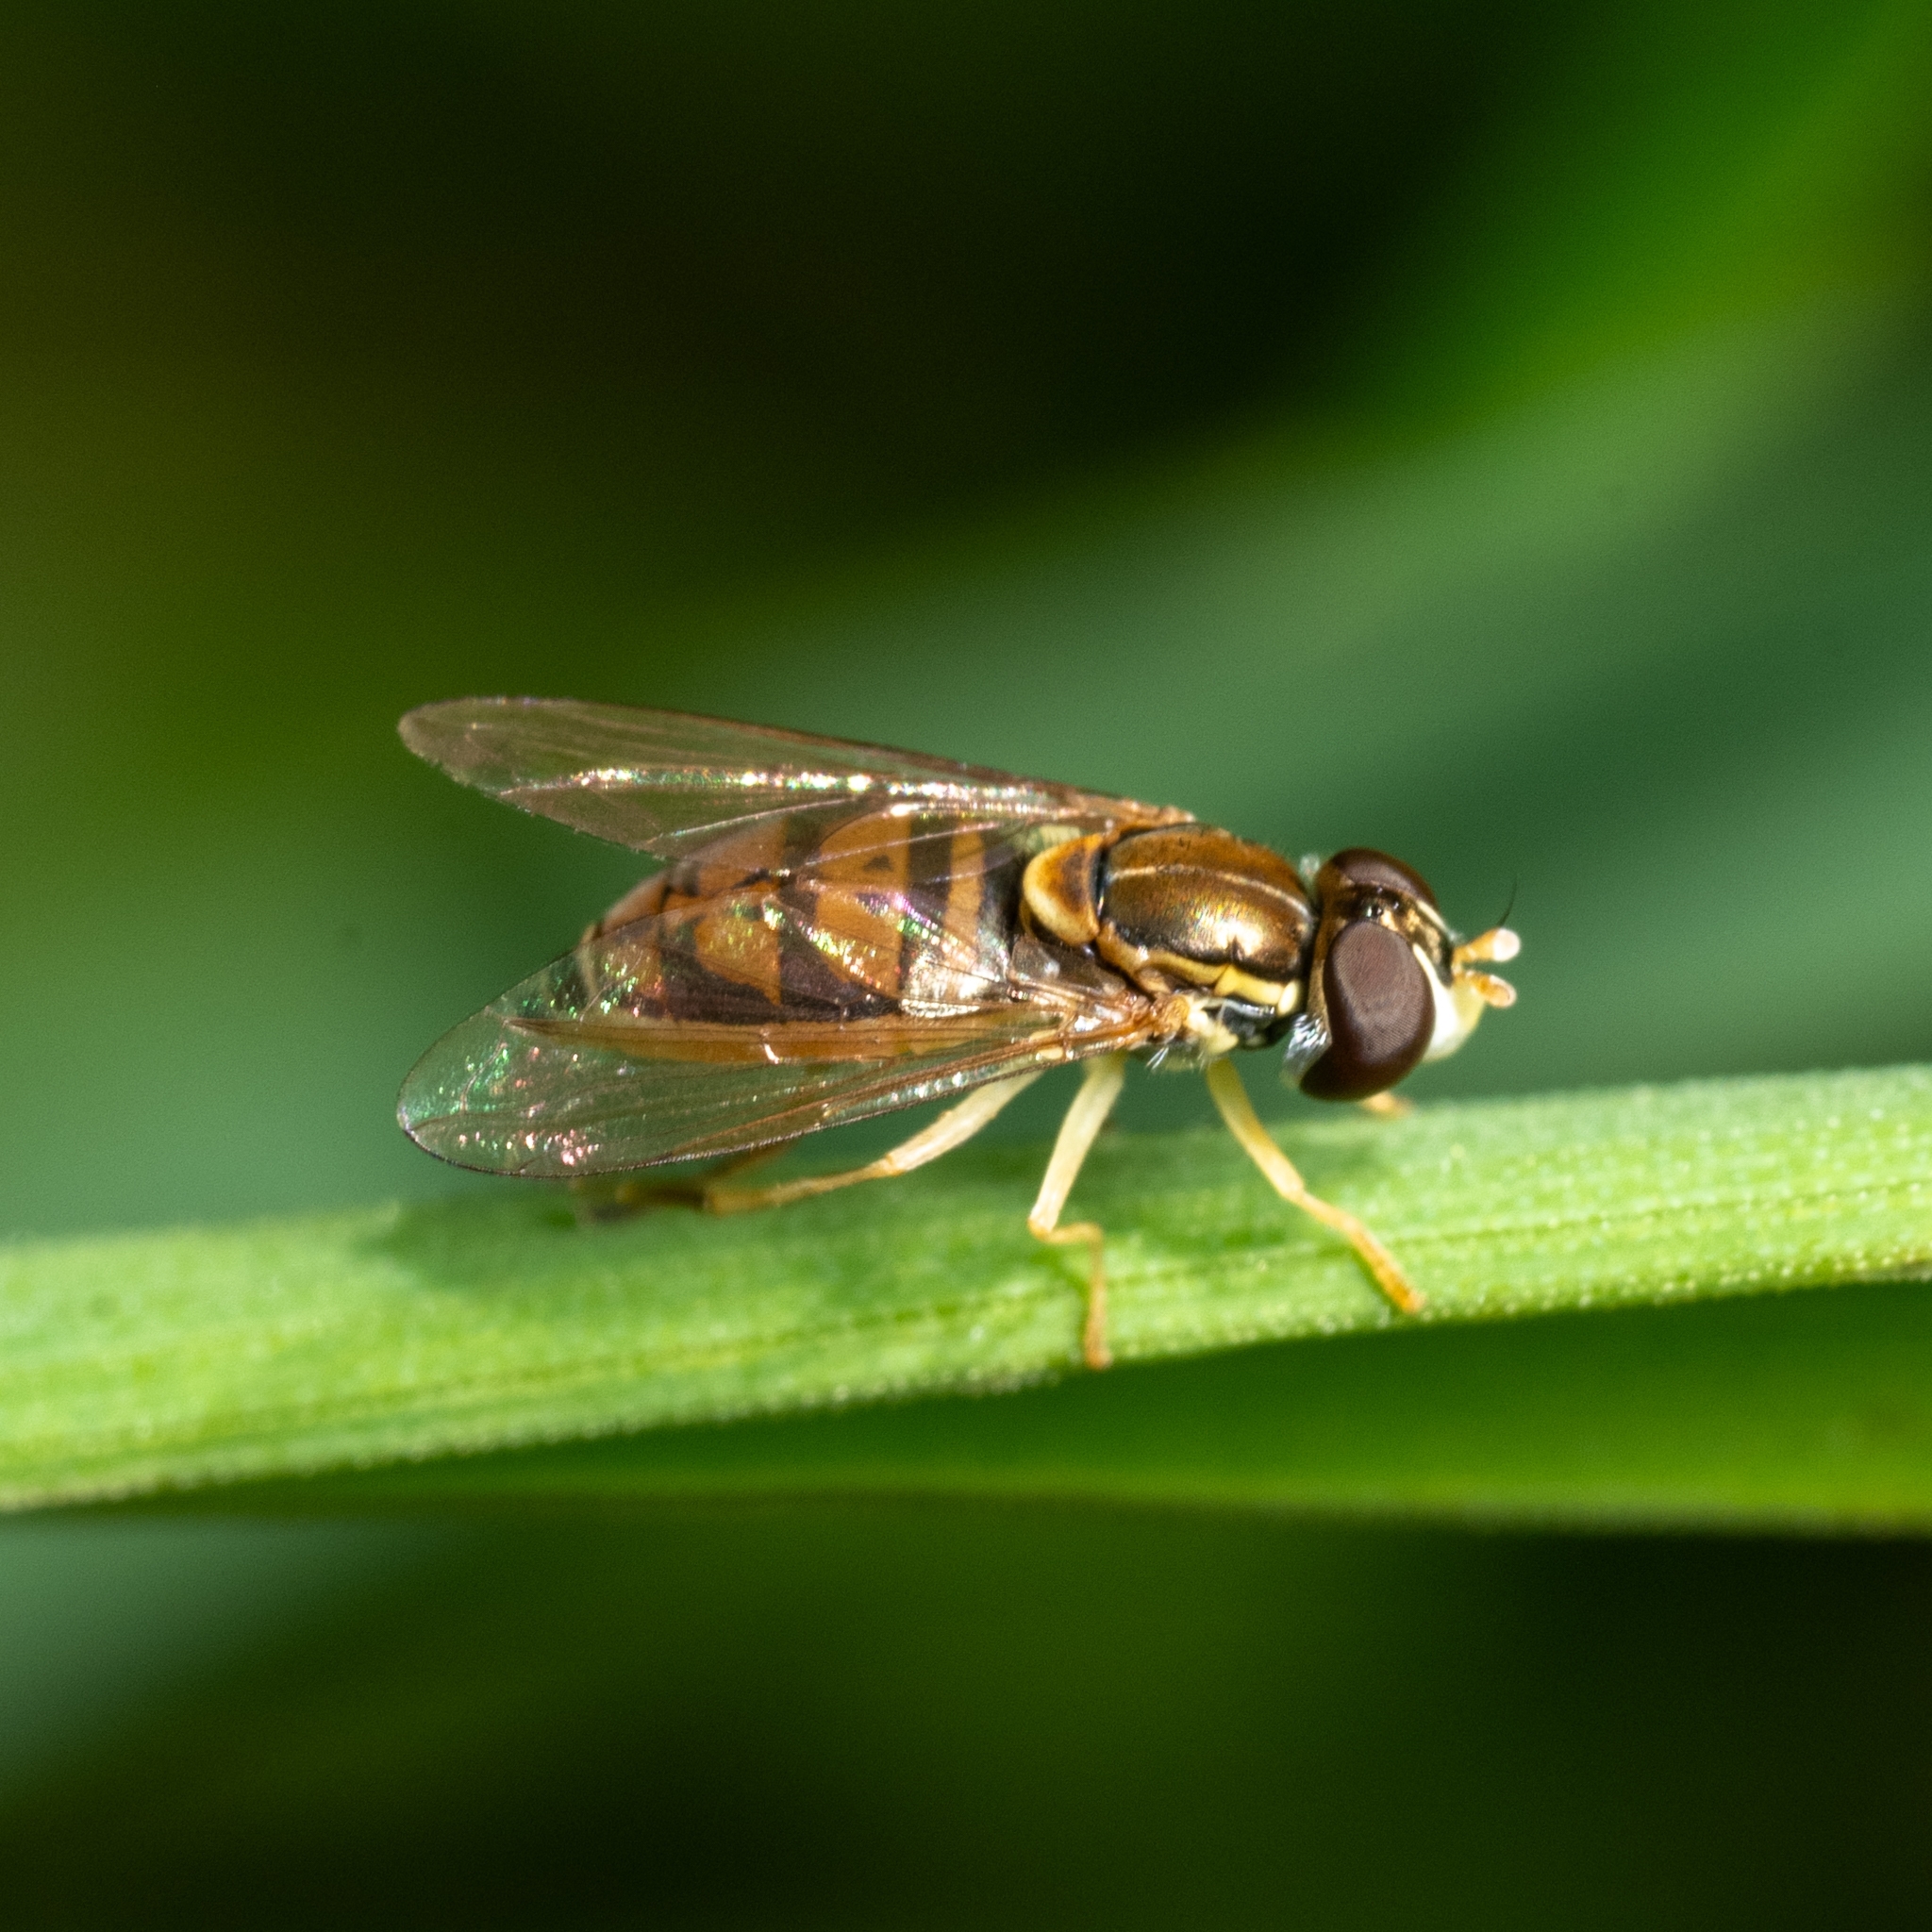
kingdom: Animalia
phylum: Arthropoda
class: Insecta
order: Diptera
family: Syrphidae
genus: Toxomerus
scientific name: Toxomerus marginatus
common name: Syrphid fly
